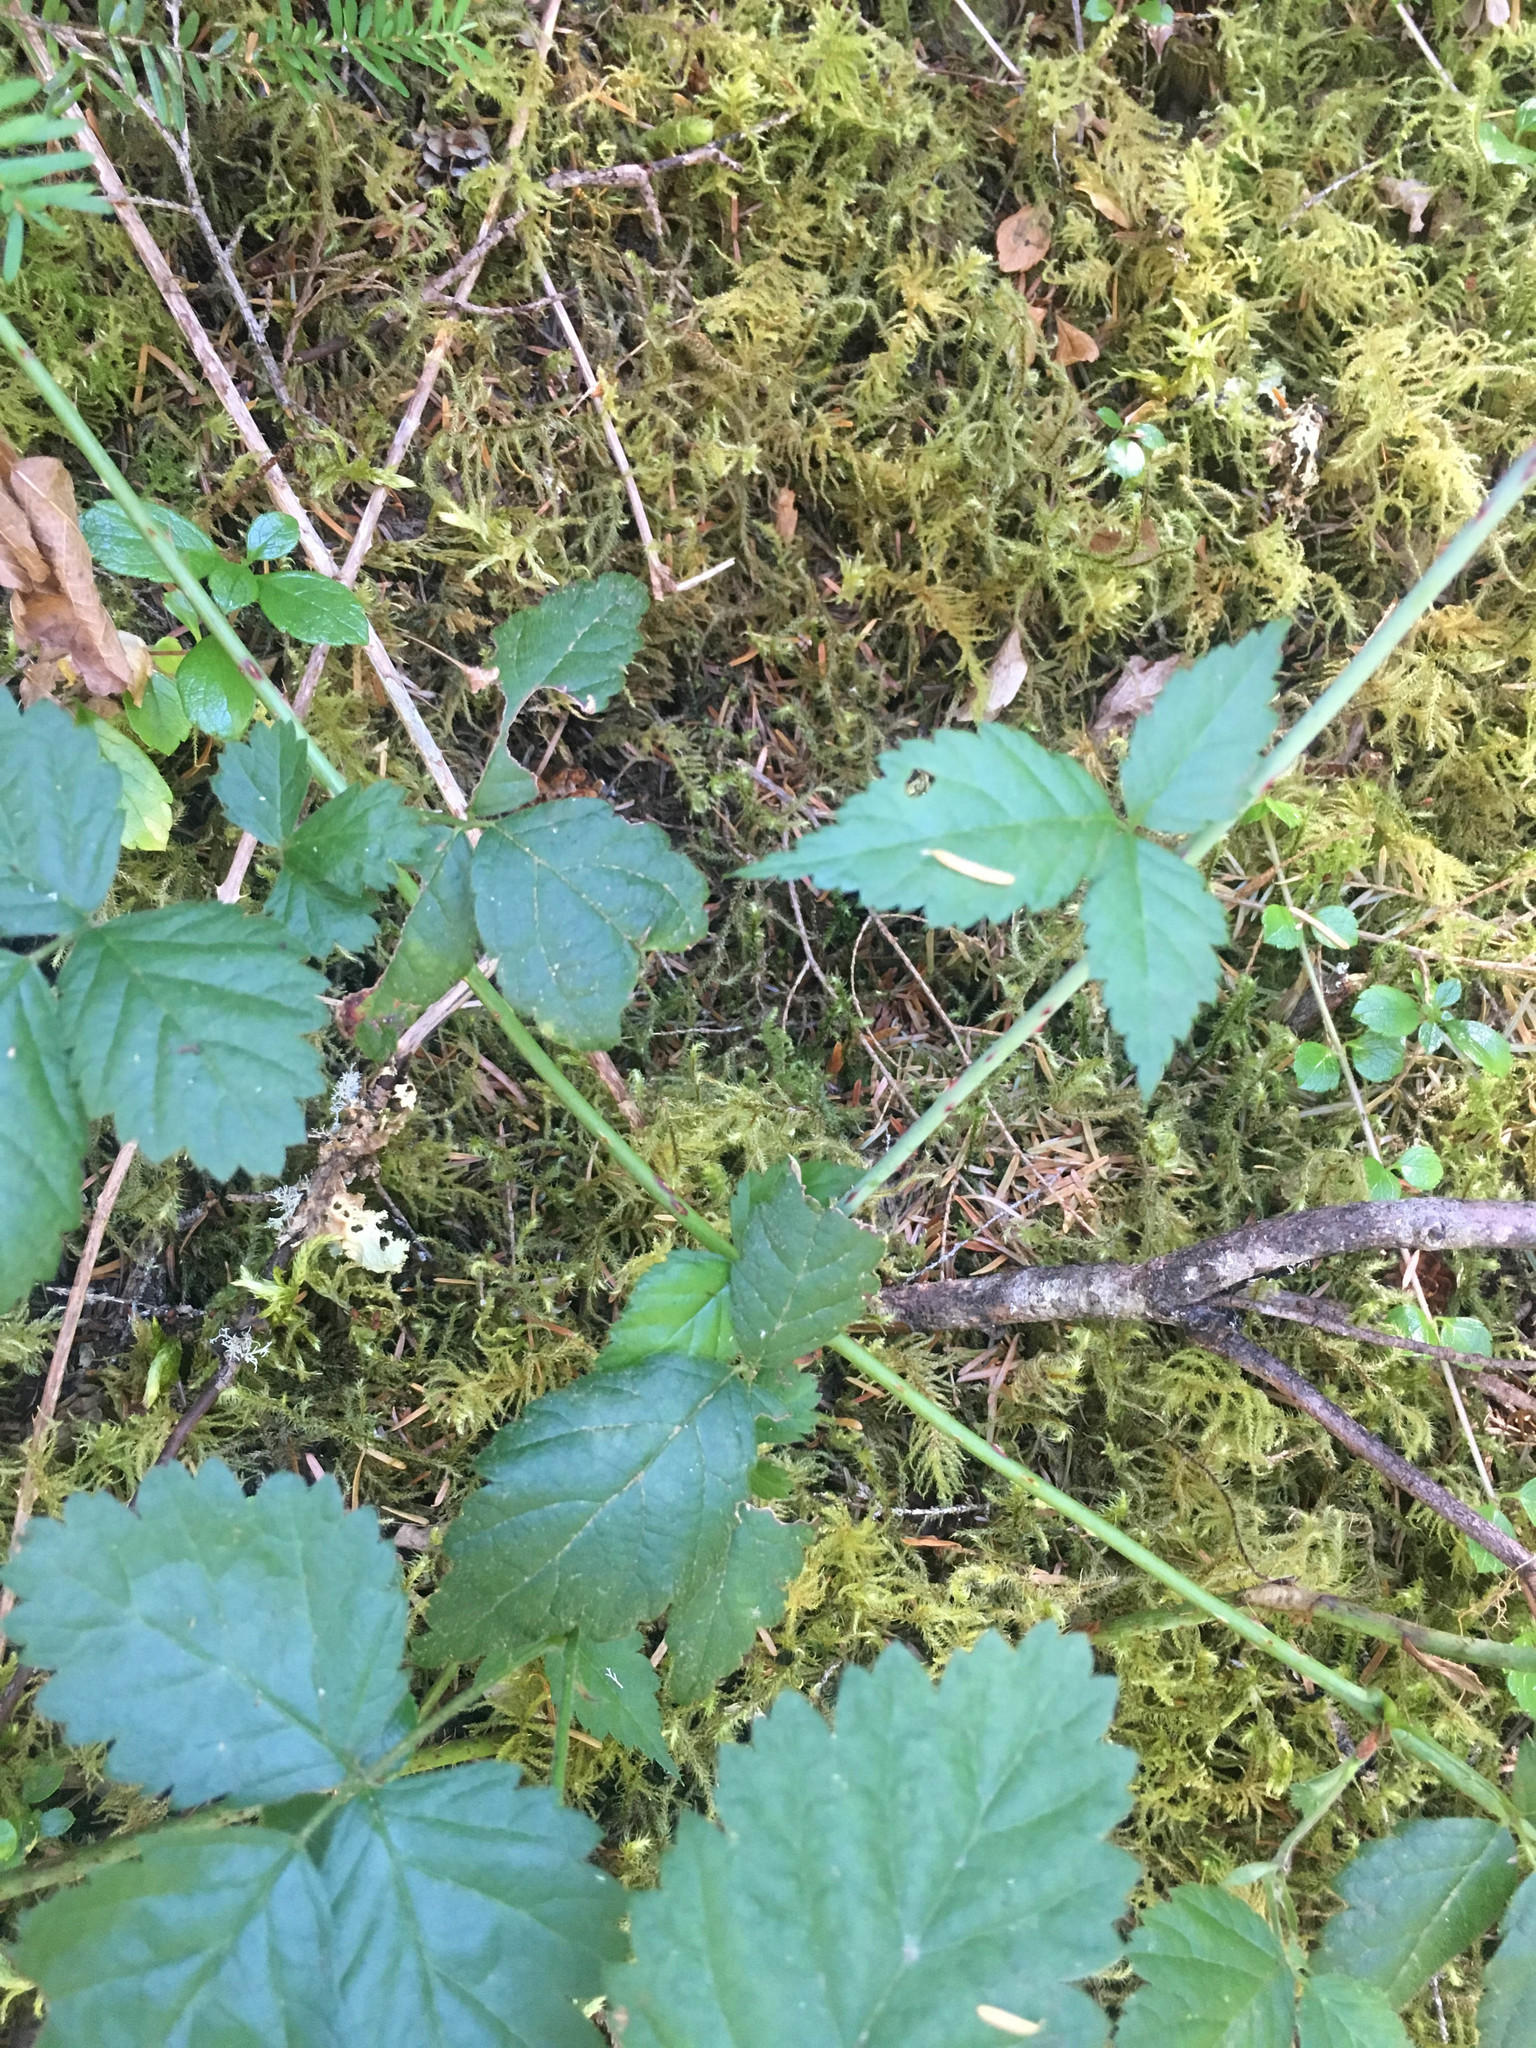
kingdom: Plantae
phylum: Tracheophyta
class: Magnoliopsida
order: Rosales
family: Rosaceae
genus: Rubus
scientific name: Rubus ursinus
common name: Pacific blackberry
